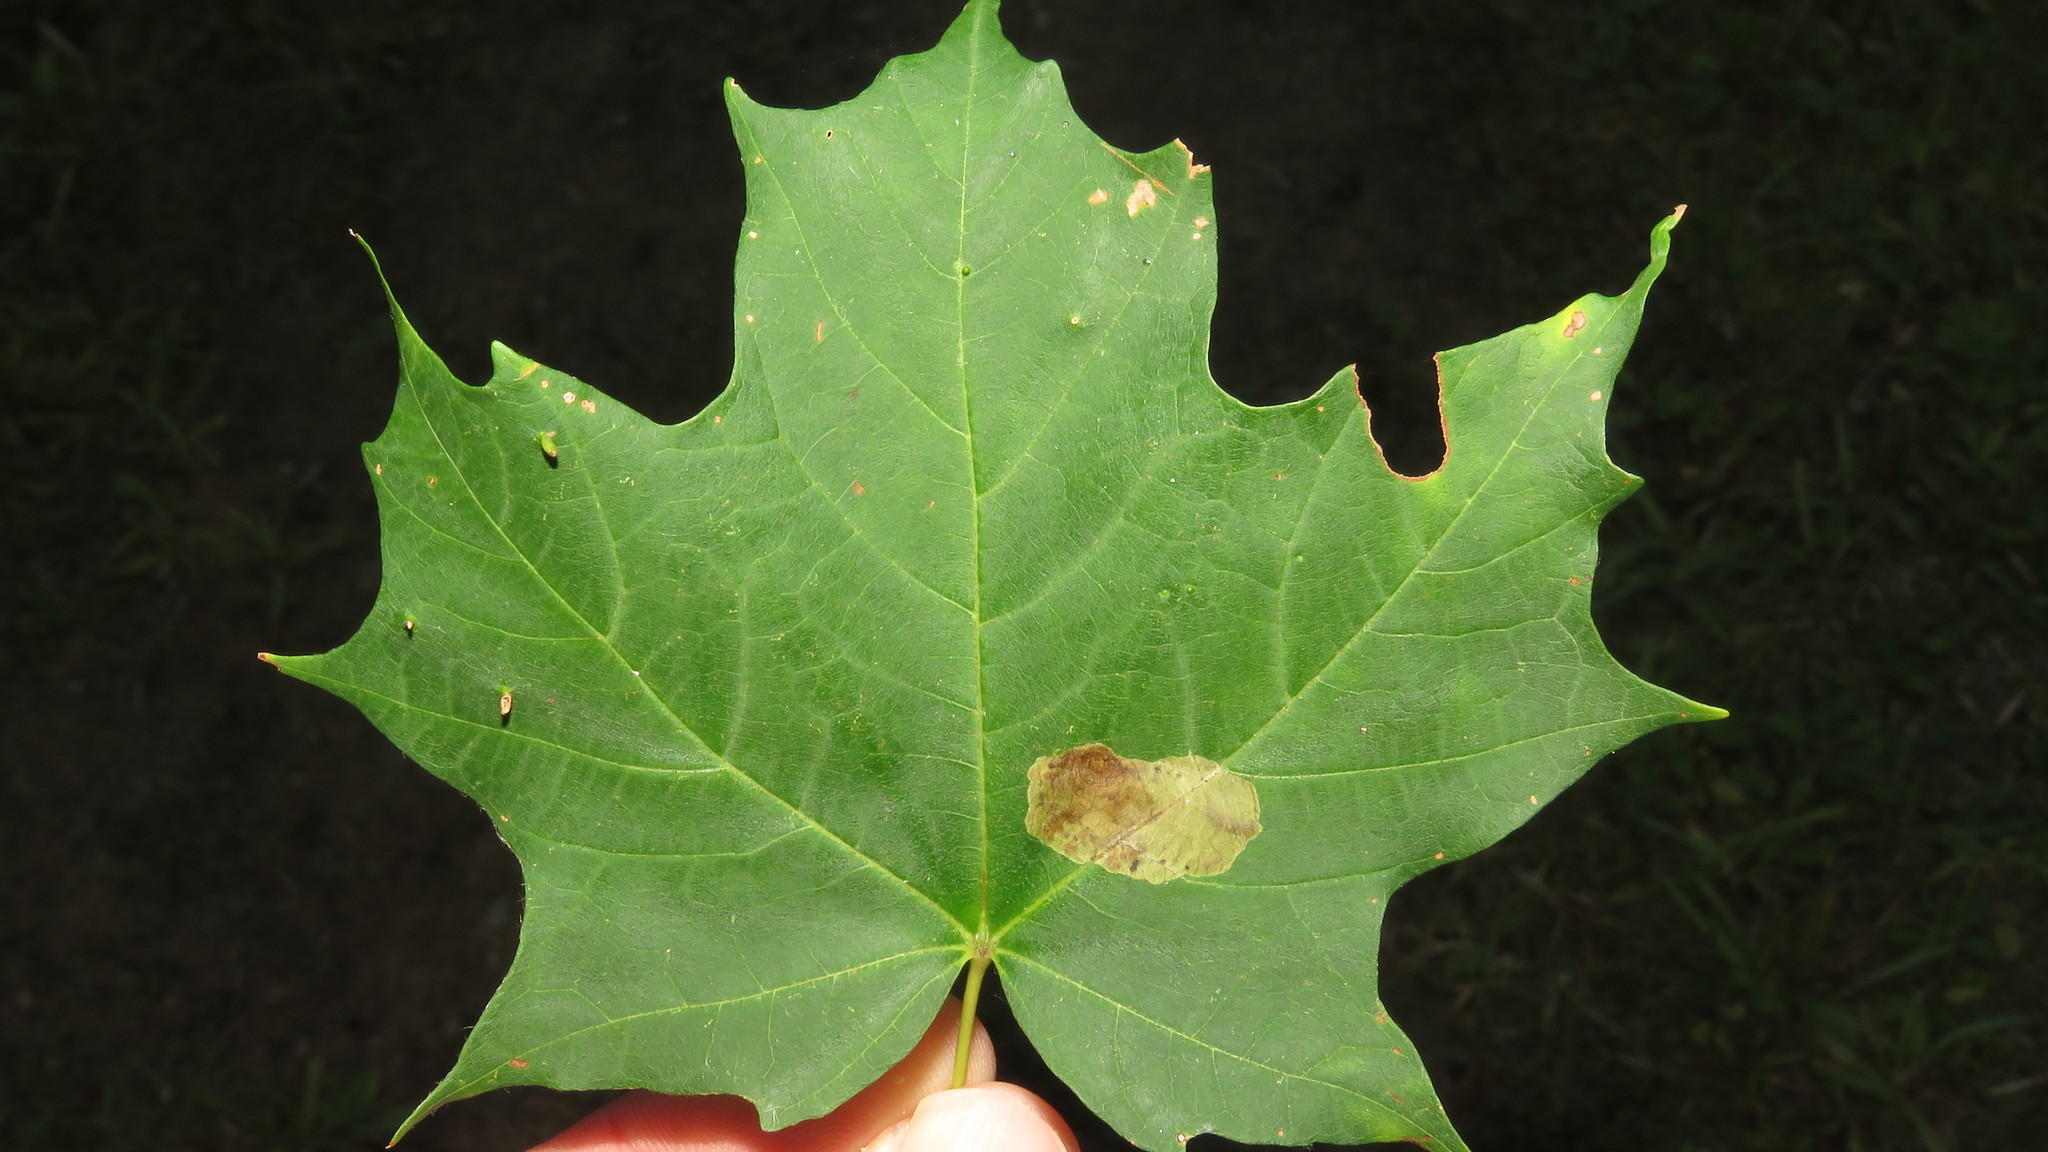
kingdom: Plantae
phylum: Tracheophyta
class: Magnoliopsida
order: Sapindales
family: Sapindaceae
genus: Acer
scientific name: Acer saccharum
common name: Sugar maple
